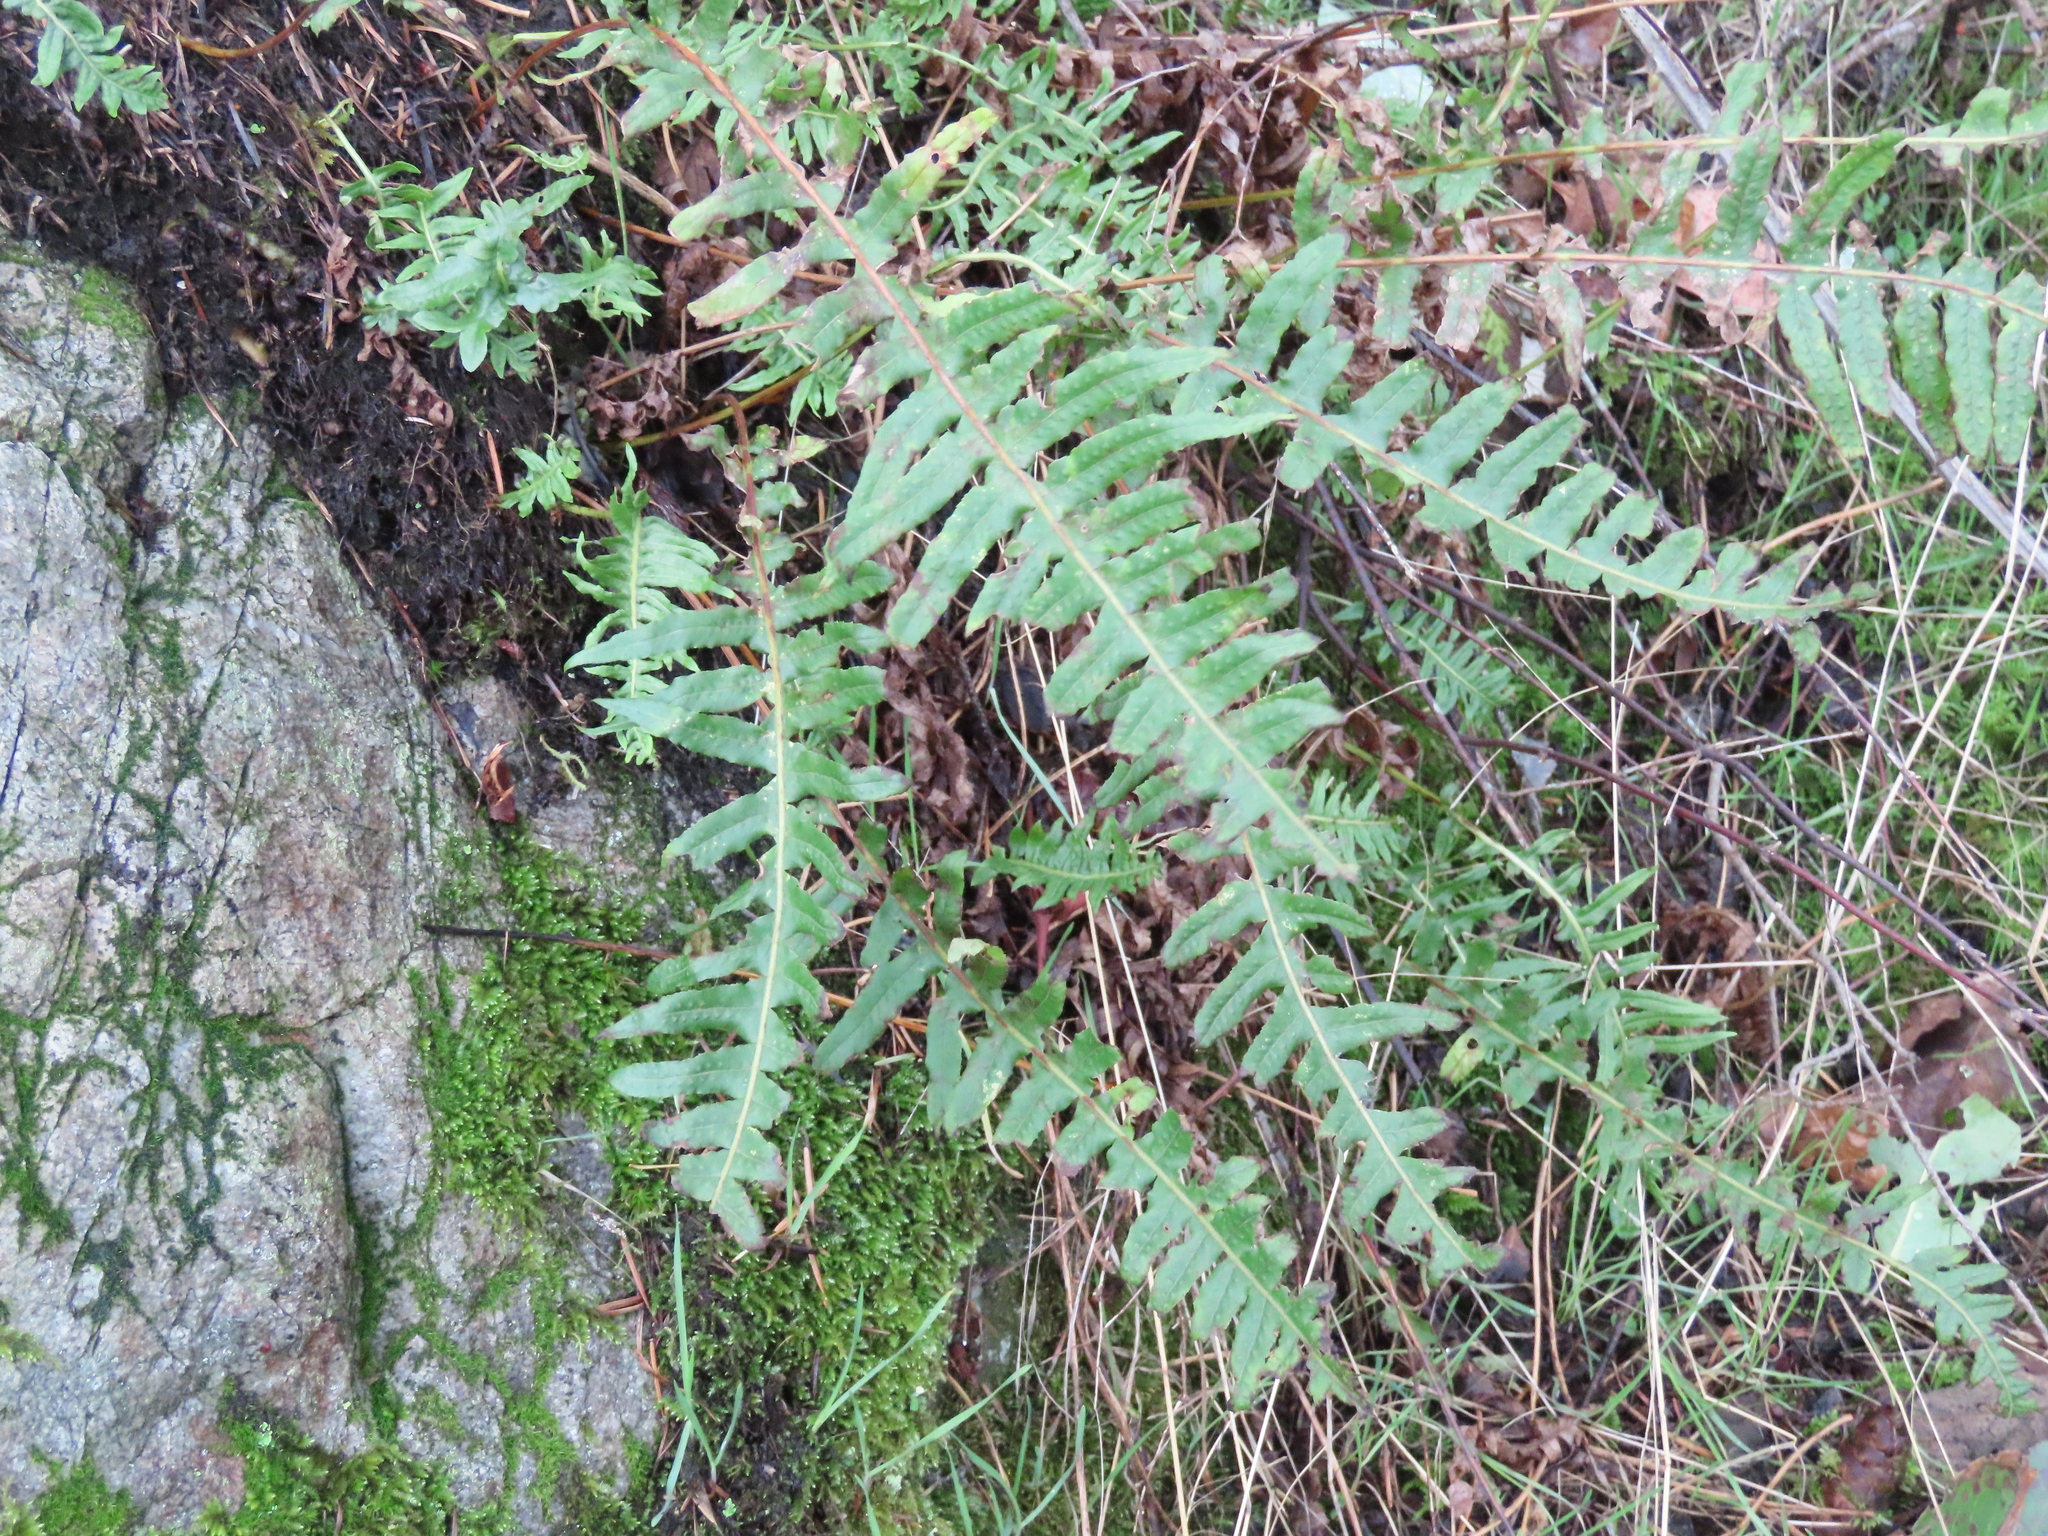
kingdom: Plantae
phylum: Tracheophyta
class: Polypodiopsida
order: Polypodiales
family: Polypodiaceae
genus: Polypodium
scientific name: Polypodium glycyrrhiza
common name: Licorice fern
